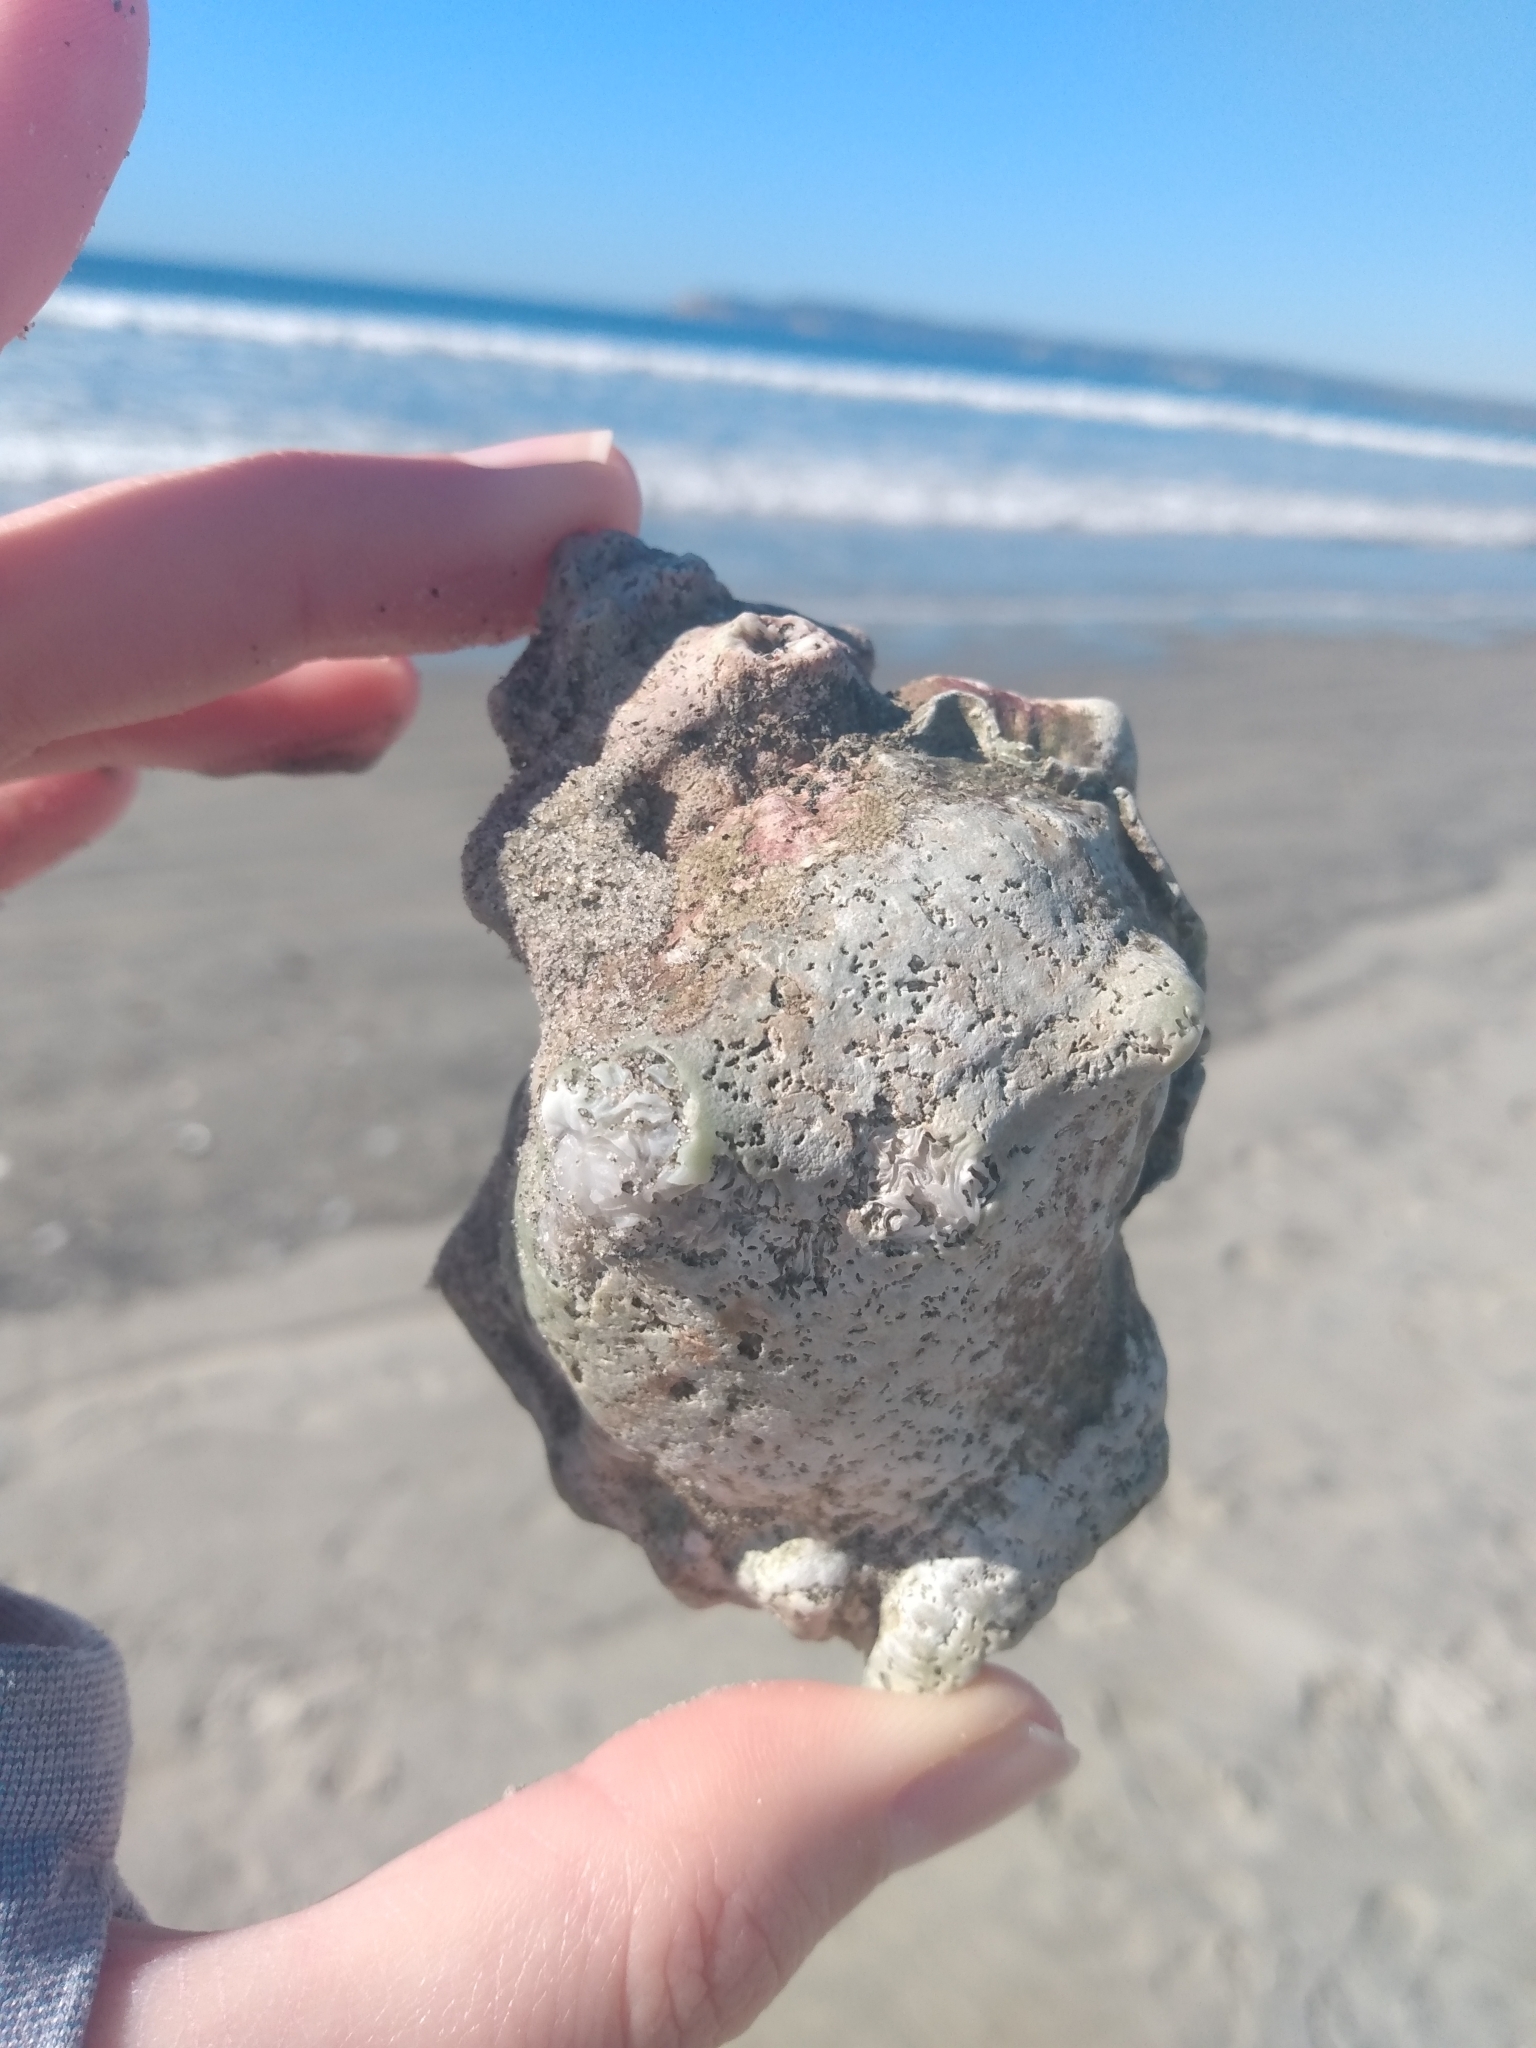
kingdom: Animalia
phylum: Mollusca
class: Gastropoda
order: Littorinimorpha
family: Bursidae
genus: Crossata
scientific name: Crossata californica
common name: California frogsnail
